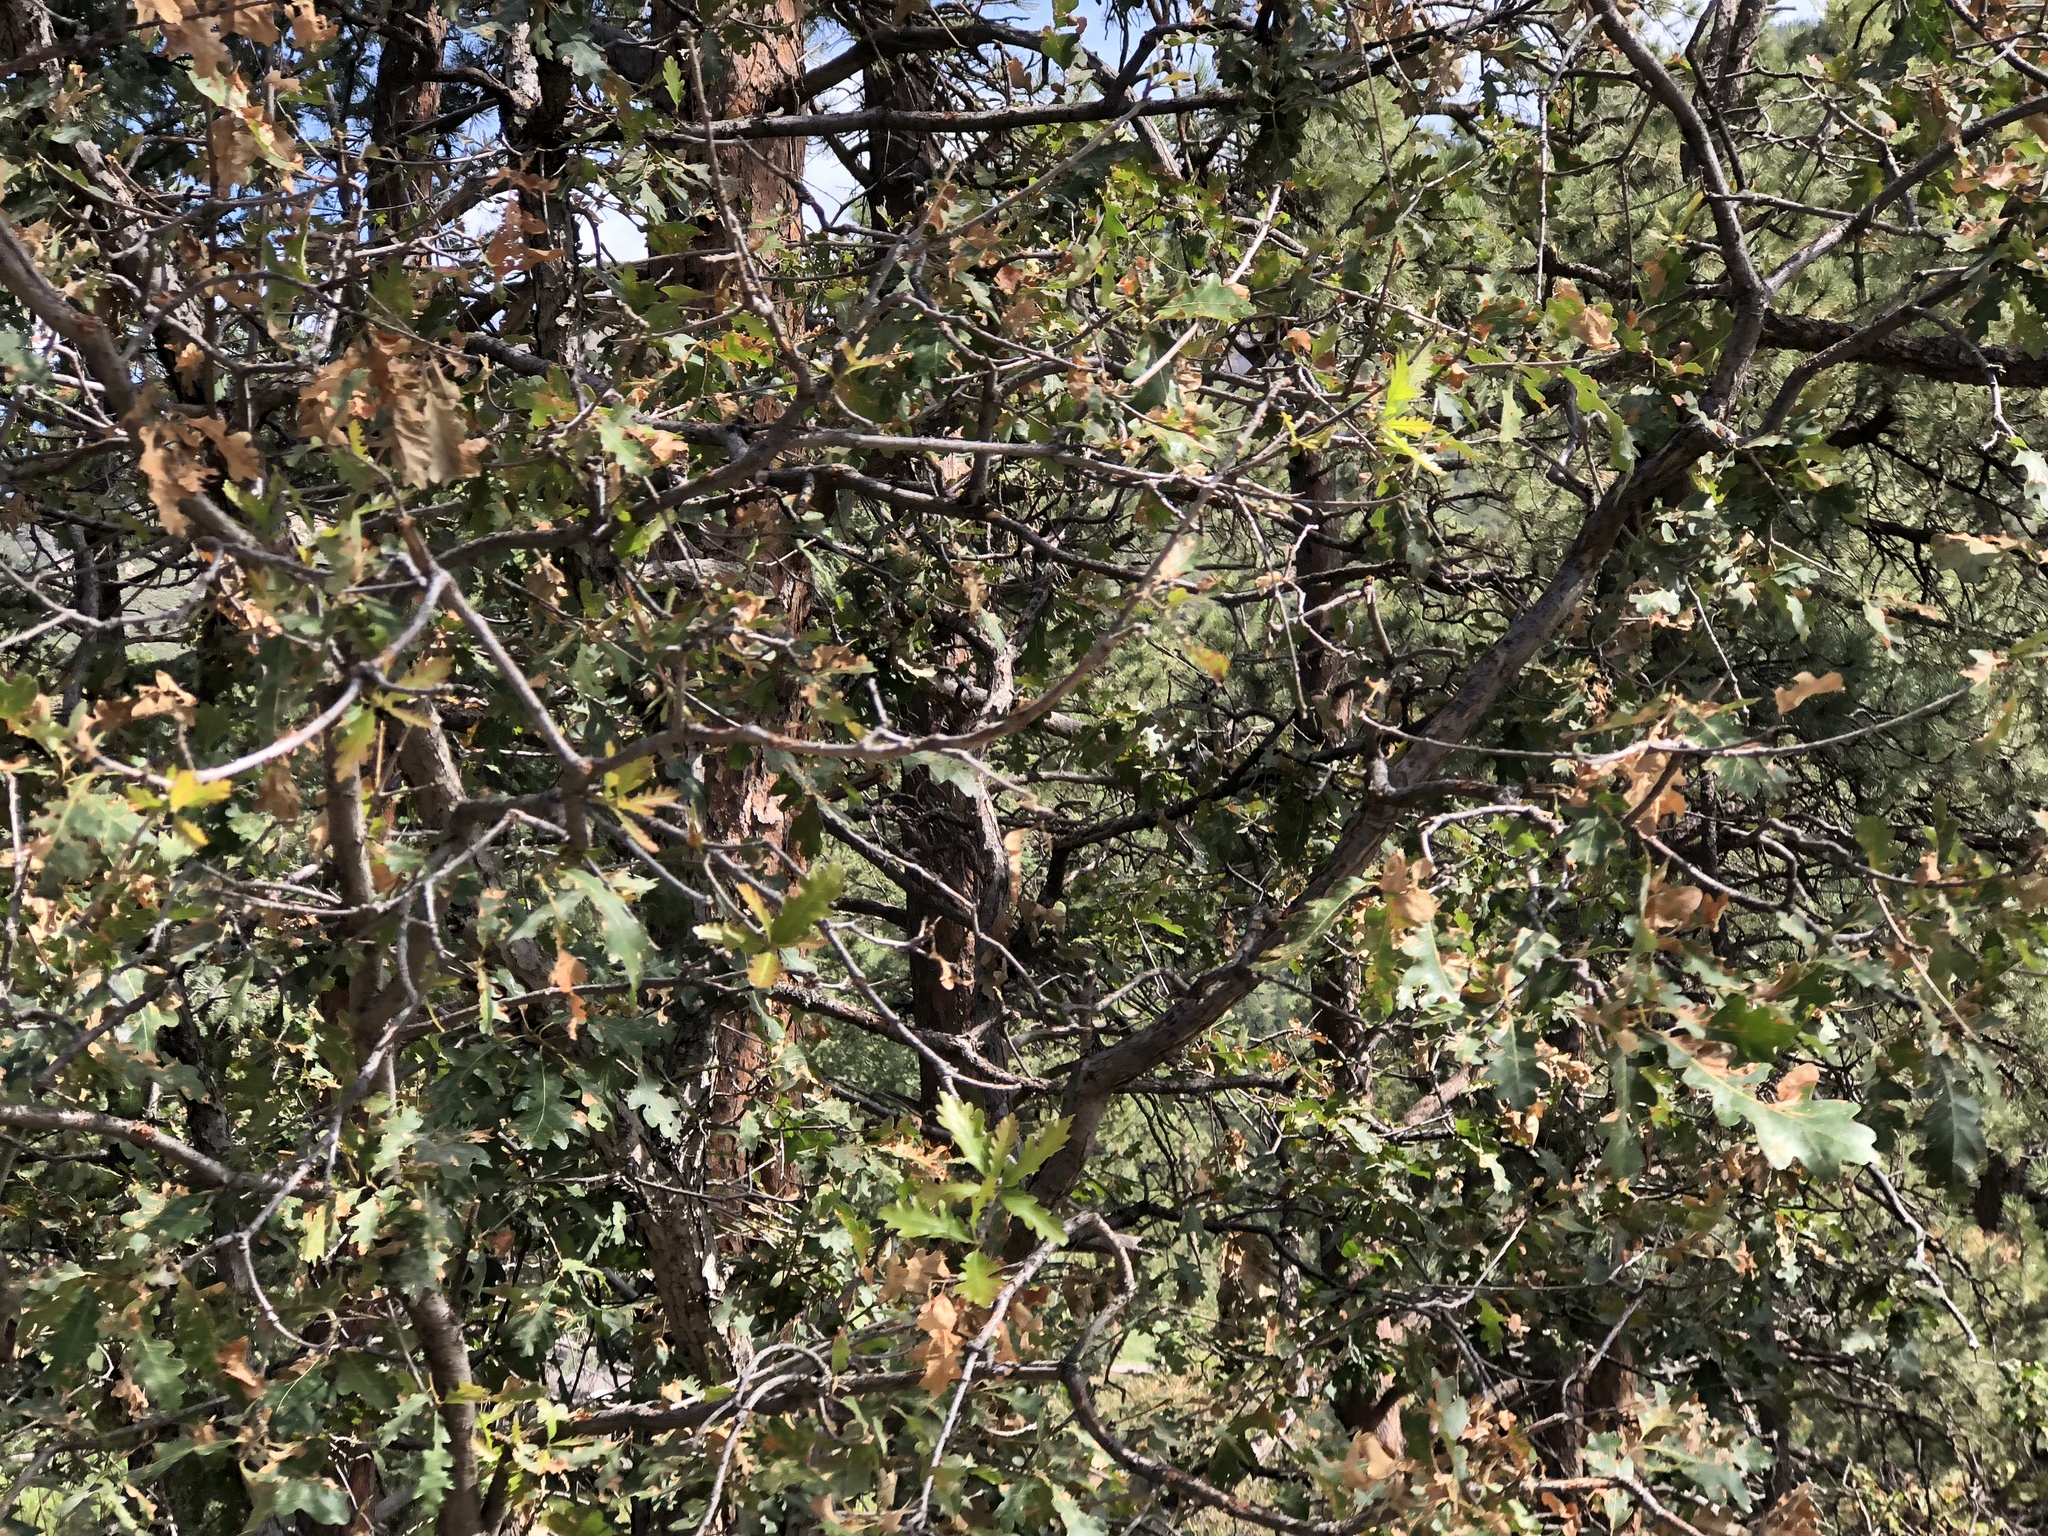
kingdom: Plantae
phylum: Tracheophyta
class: Magnoliopsida
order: Fagales
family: Fagaceae
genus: Quercus
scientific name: Quercus gambelii
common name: Gambel oak
